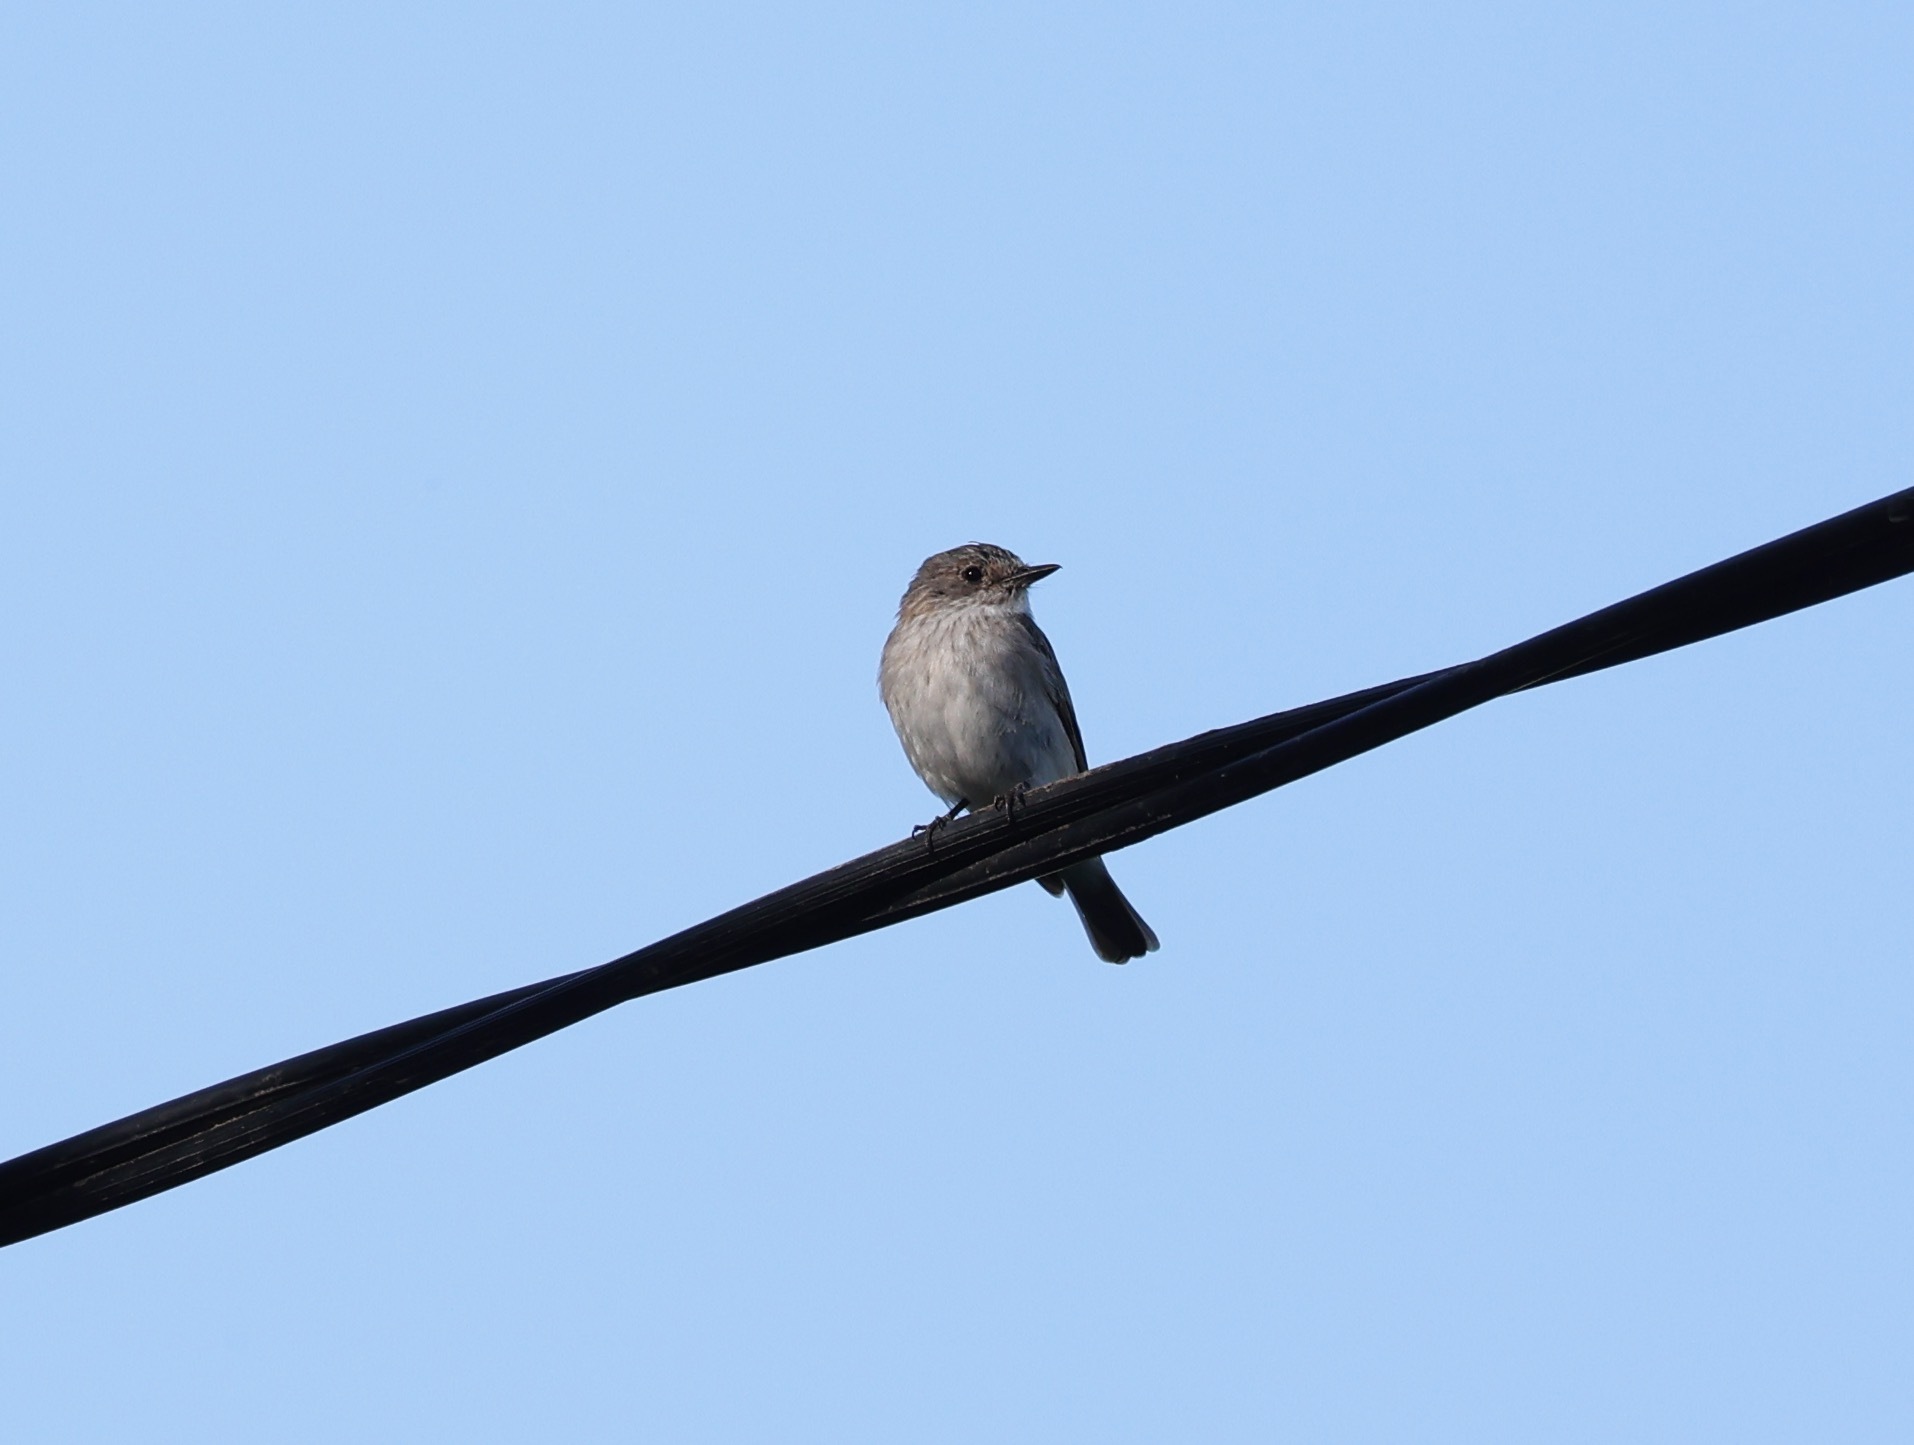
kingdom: Animalia
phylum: Chordata
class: Aves
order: Passeriformes
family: Muscicapidae
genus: Muscicapa
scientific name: Muscicapa striata
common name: Spotted flycatcher
